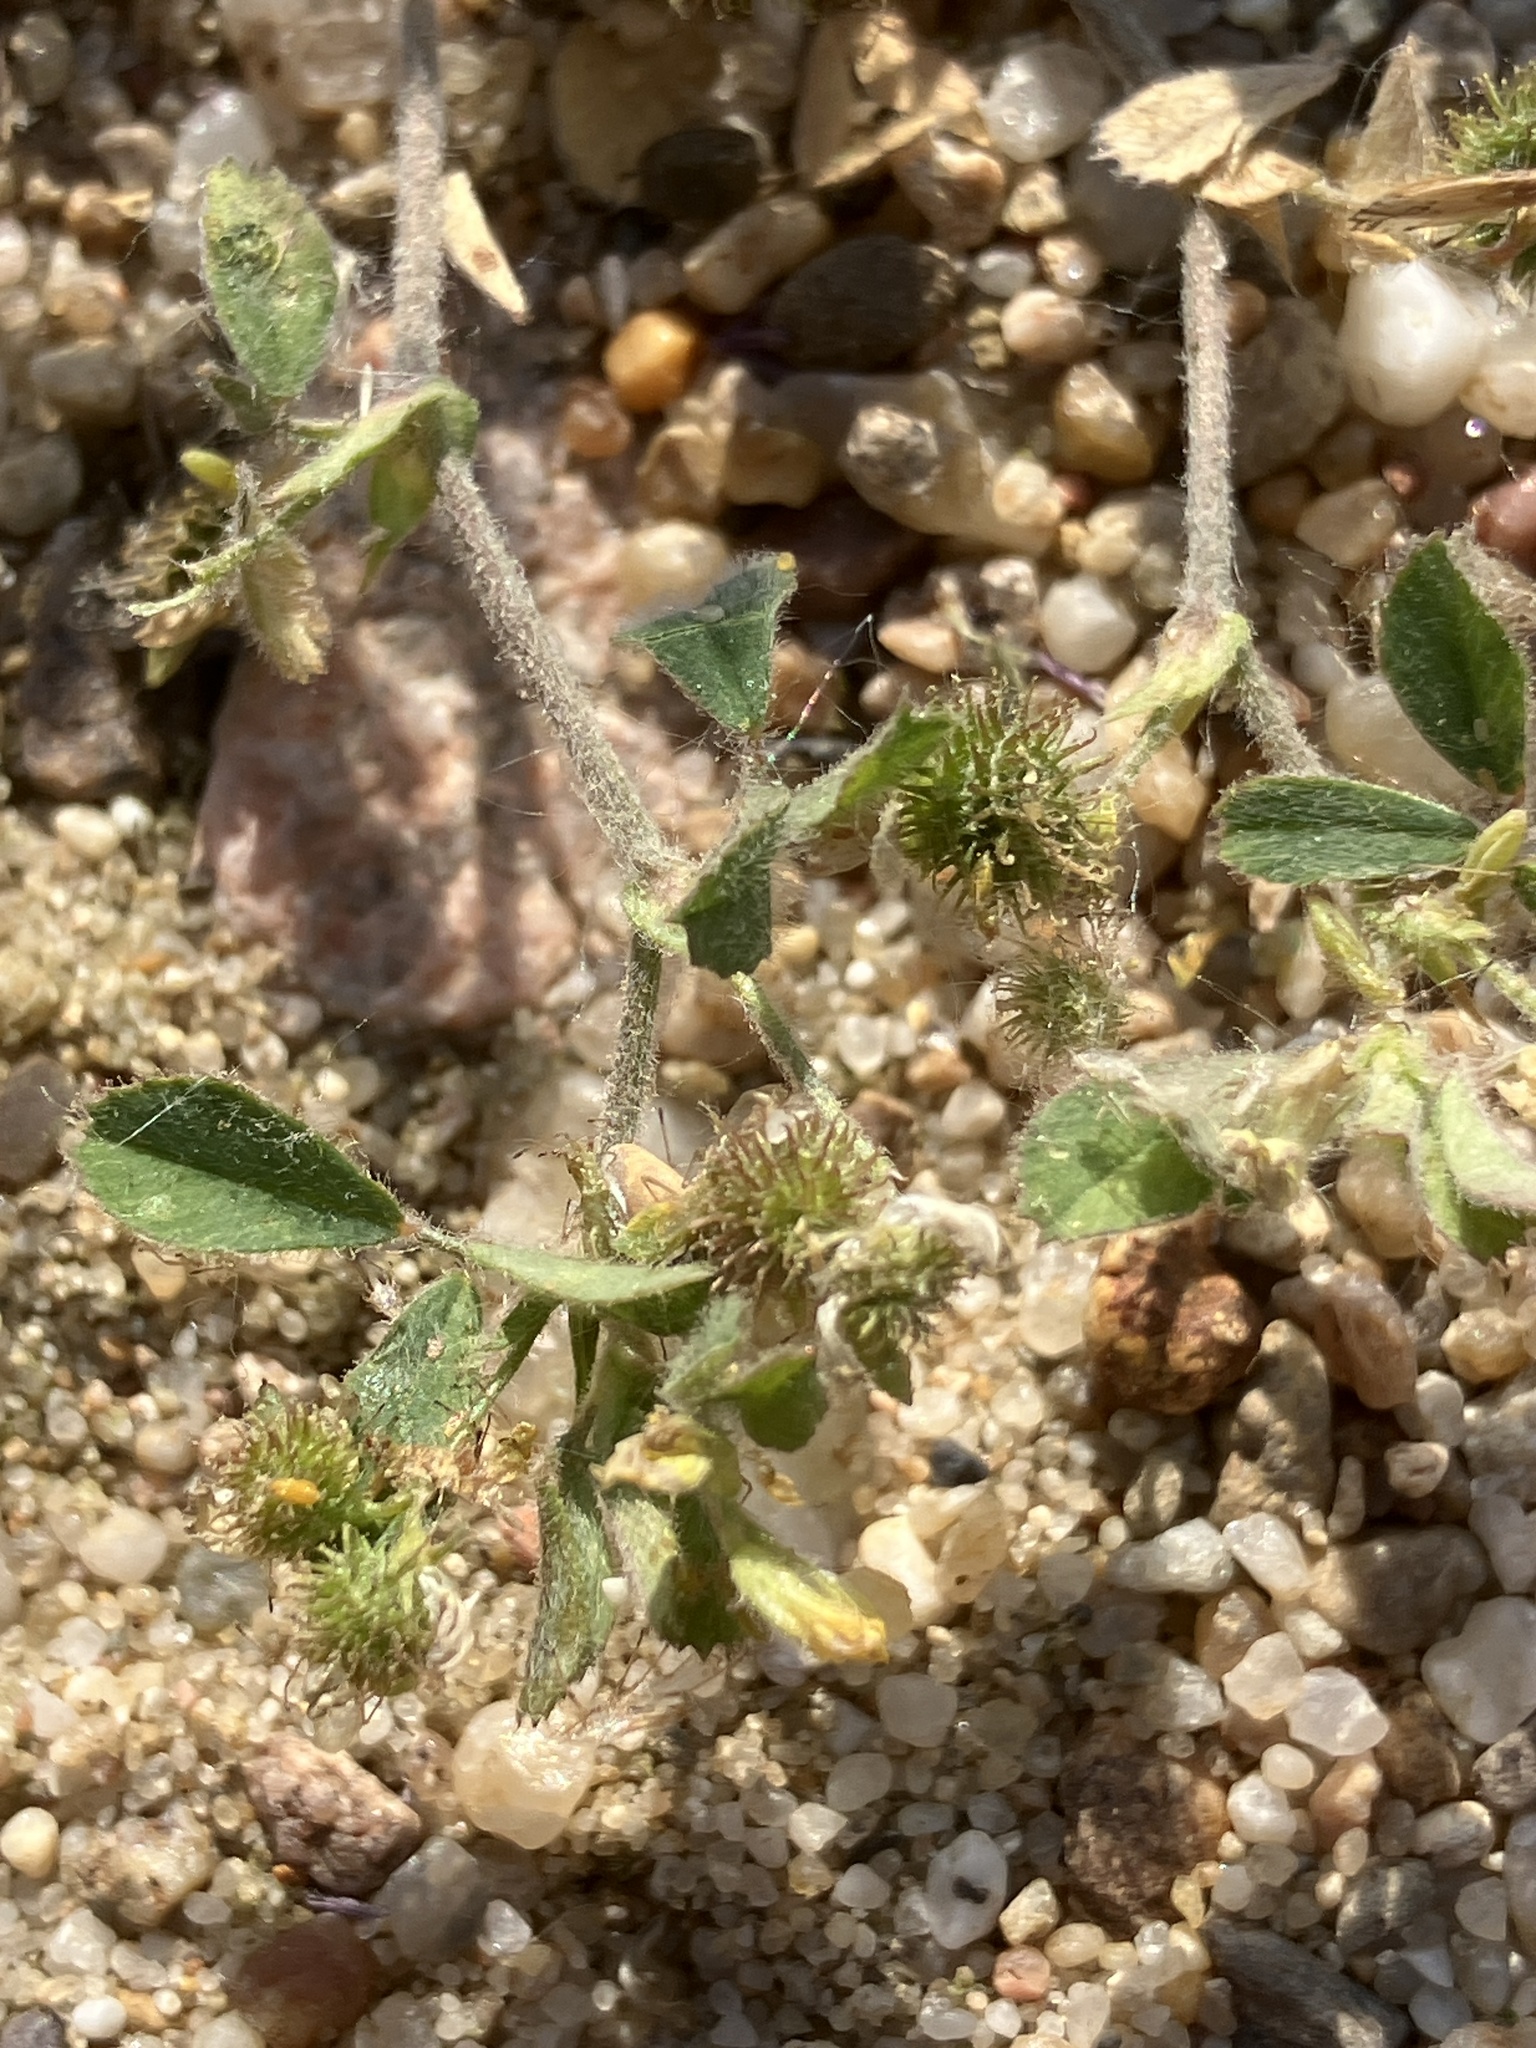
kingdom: Plantae
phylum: Tracheophyta
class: Magnoliopsida
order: Fabales
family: Fabaceae
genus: Medicago
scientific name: Medicago minima
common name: Little bur-clover
